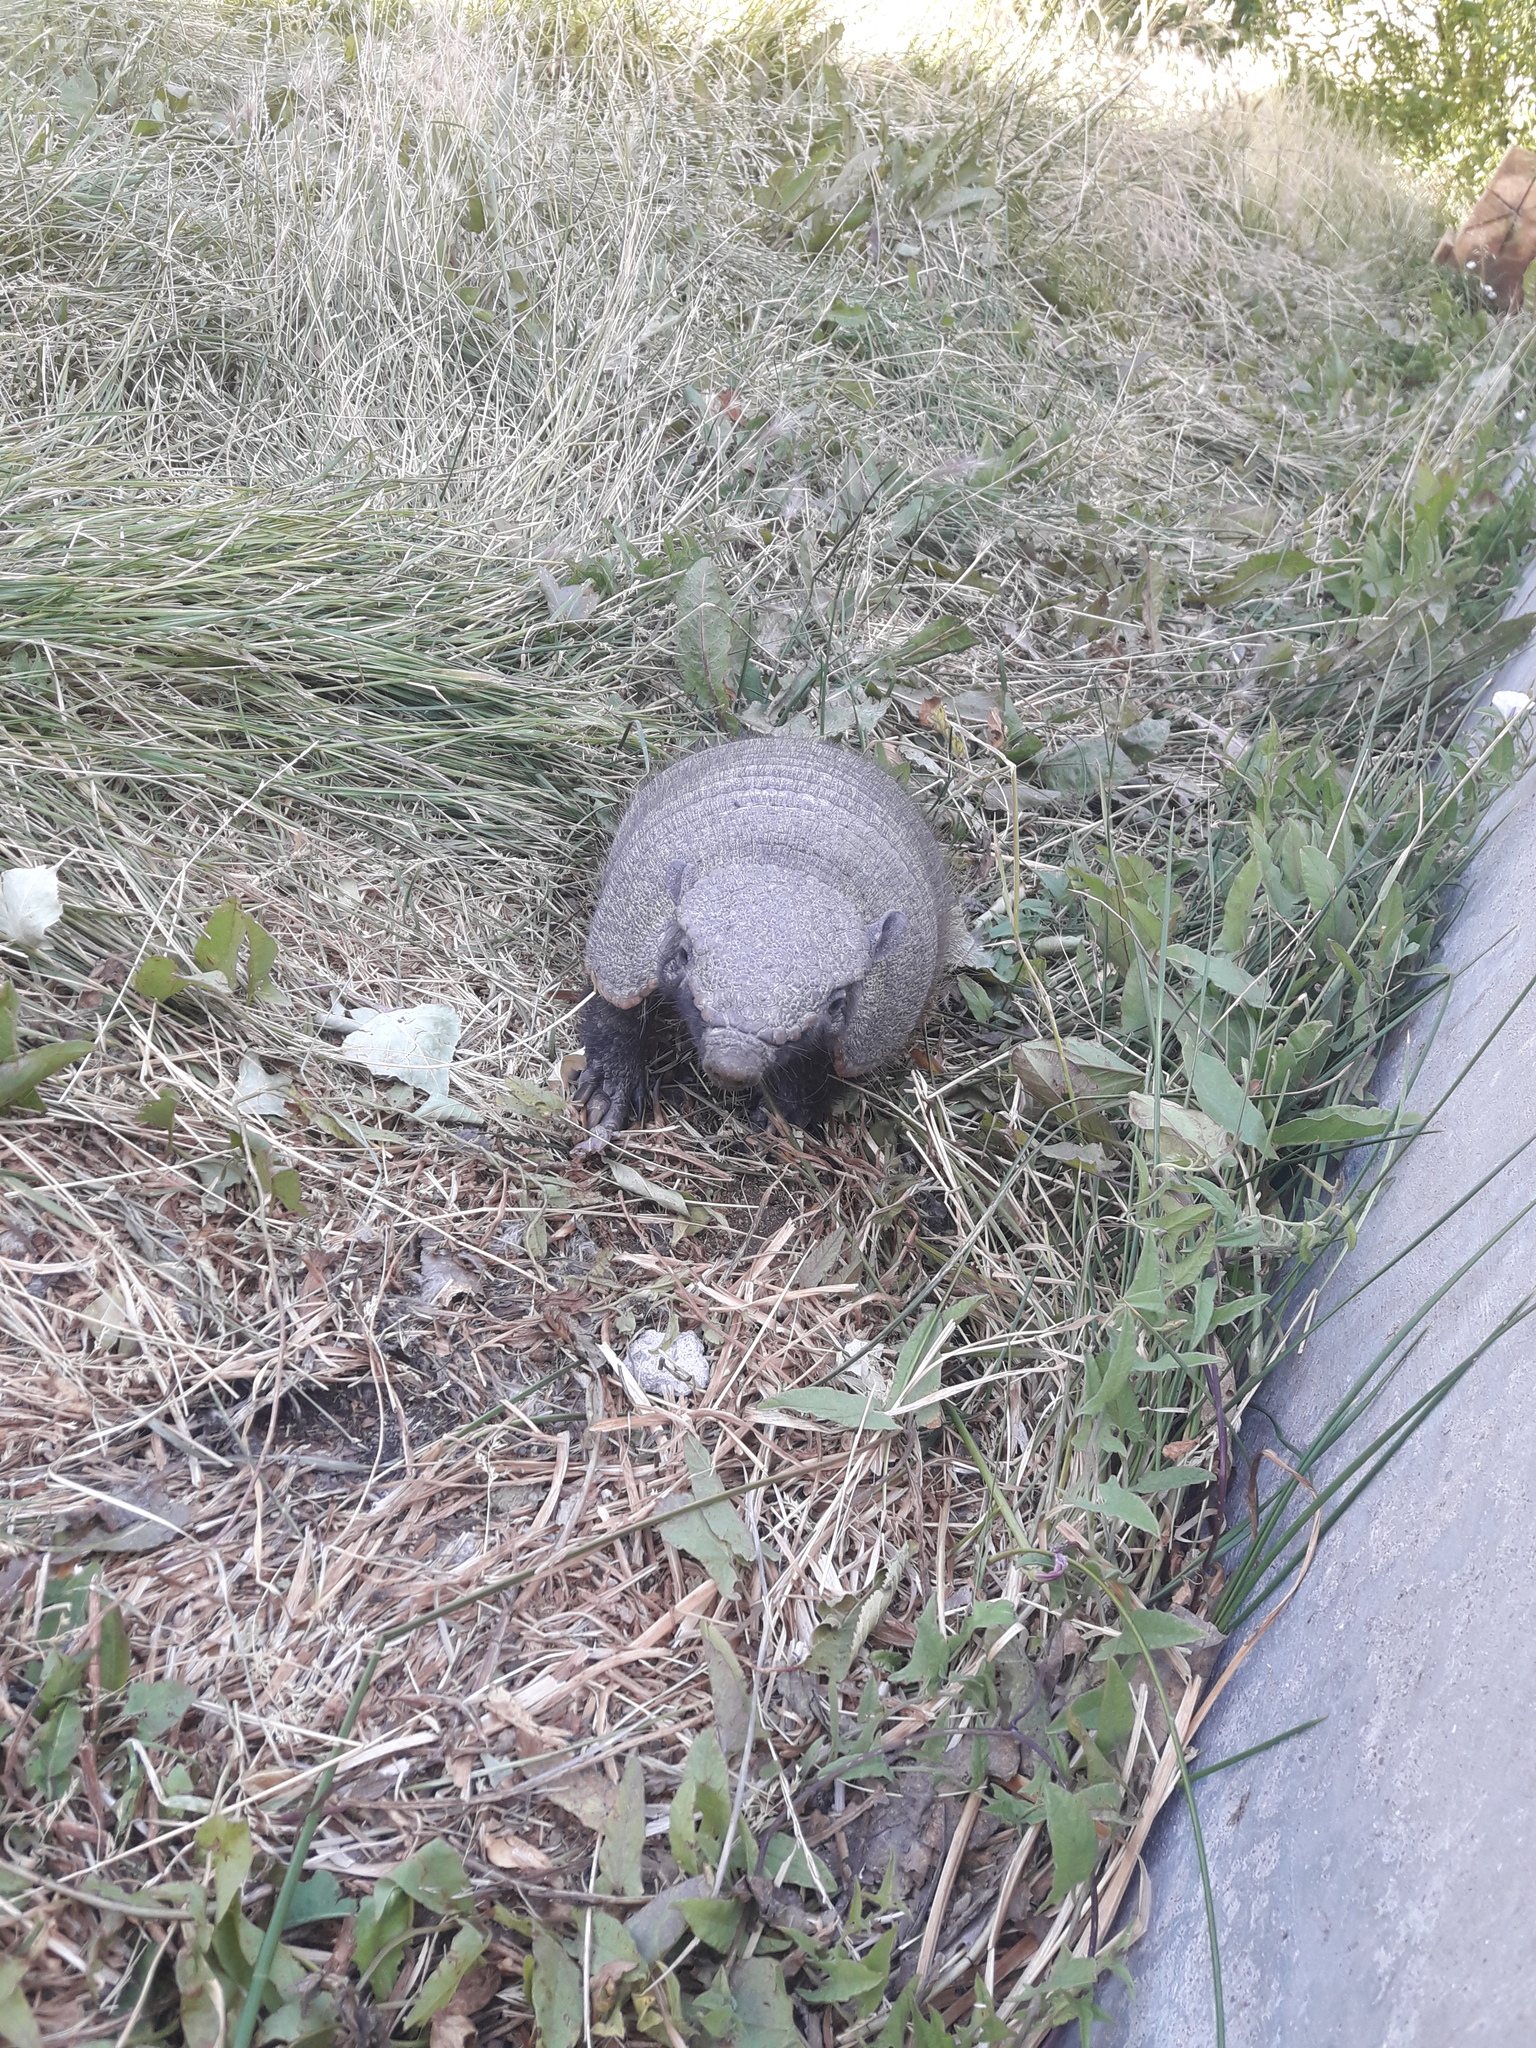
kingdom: Animalia
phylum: Chordata
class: Mammalia
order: Cingulata
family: Dasypodidae
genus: Chaetophractus
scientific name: Chaetophractus villosus
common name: Big hairy armadillo
